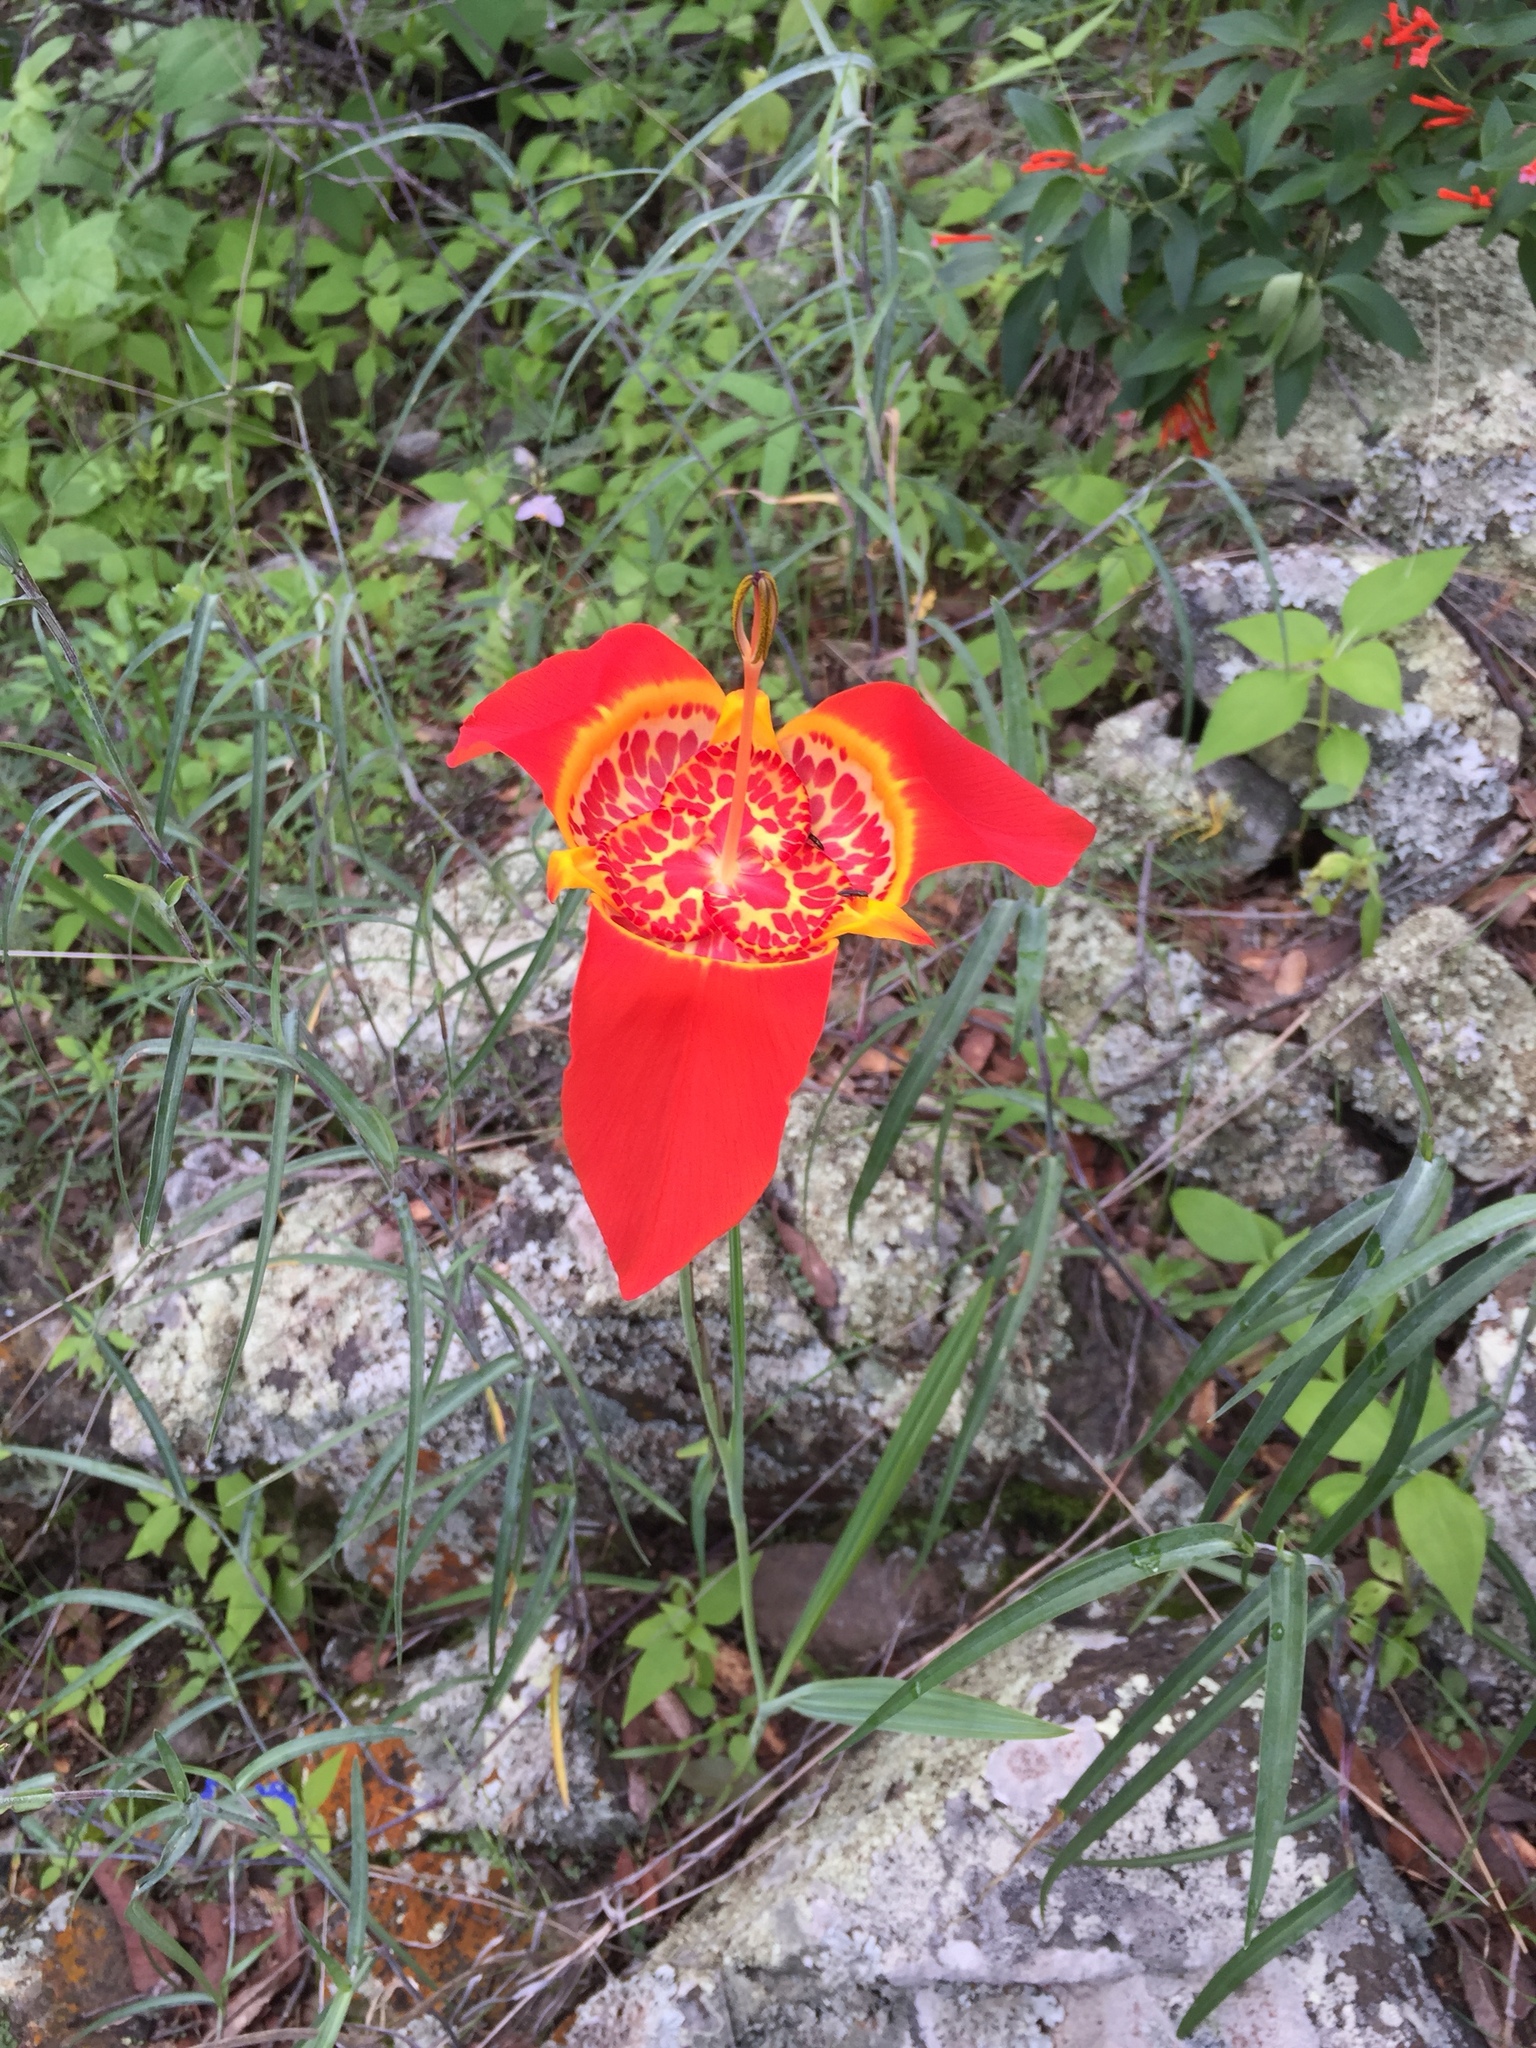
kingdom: Plantae
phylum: Tracheophyta
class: Liliopsida
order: Asparagales
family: Iridaceae
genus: Tigridia
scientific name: Tigridia pavonia
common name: Peacock-flower
